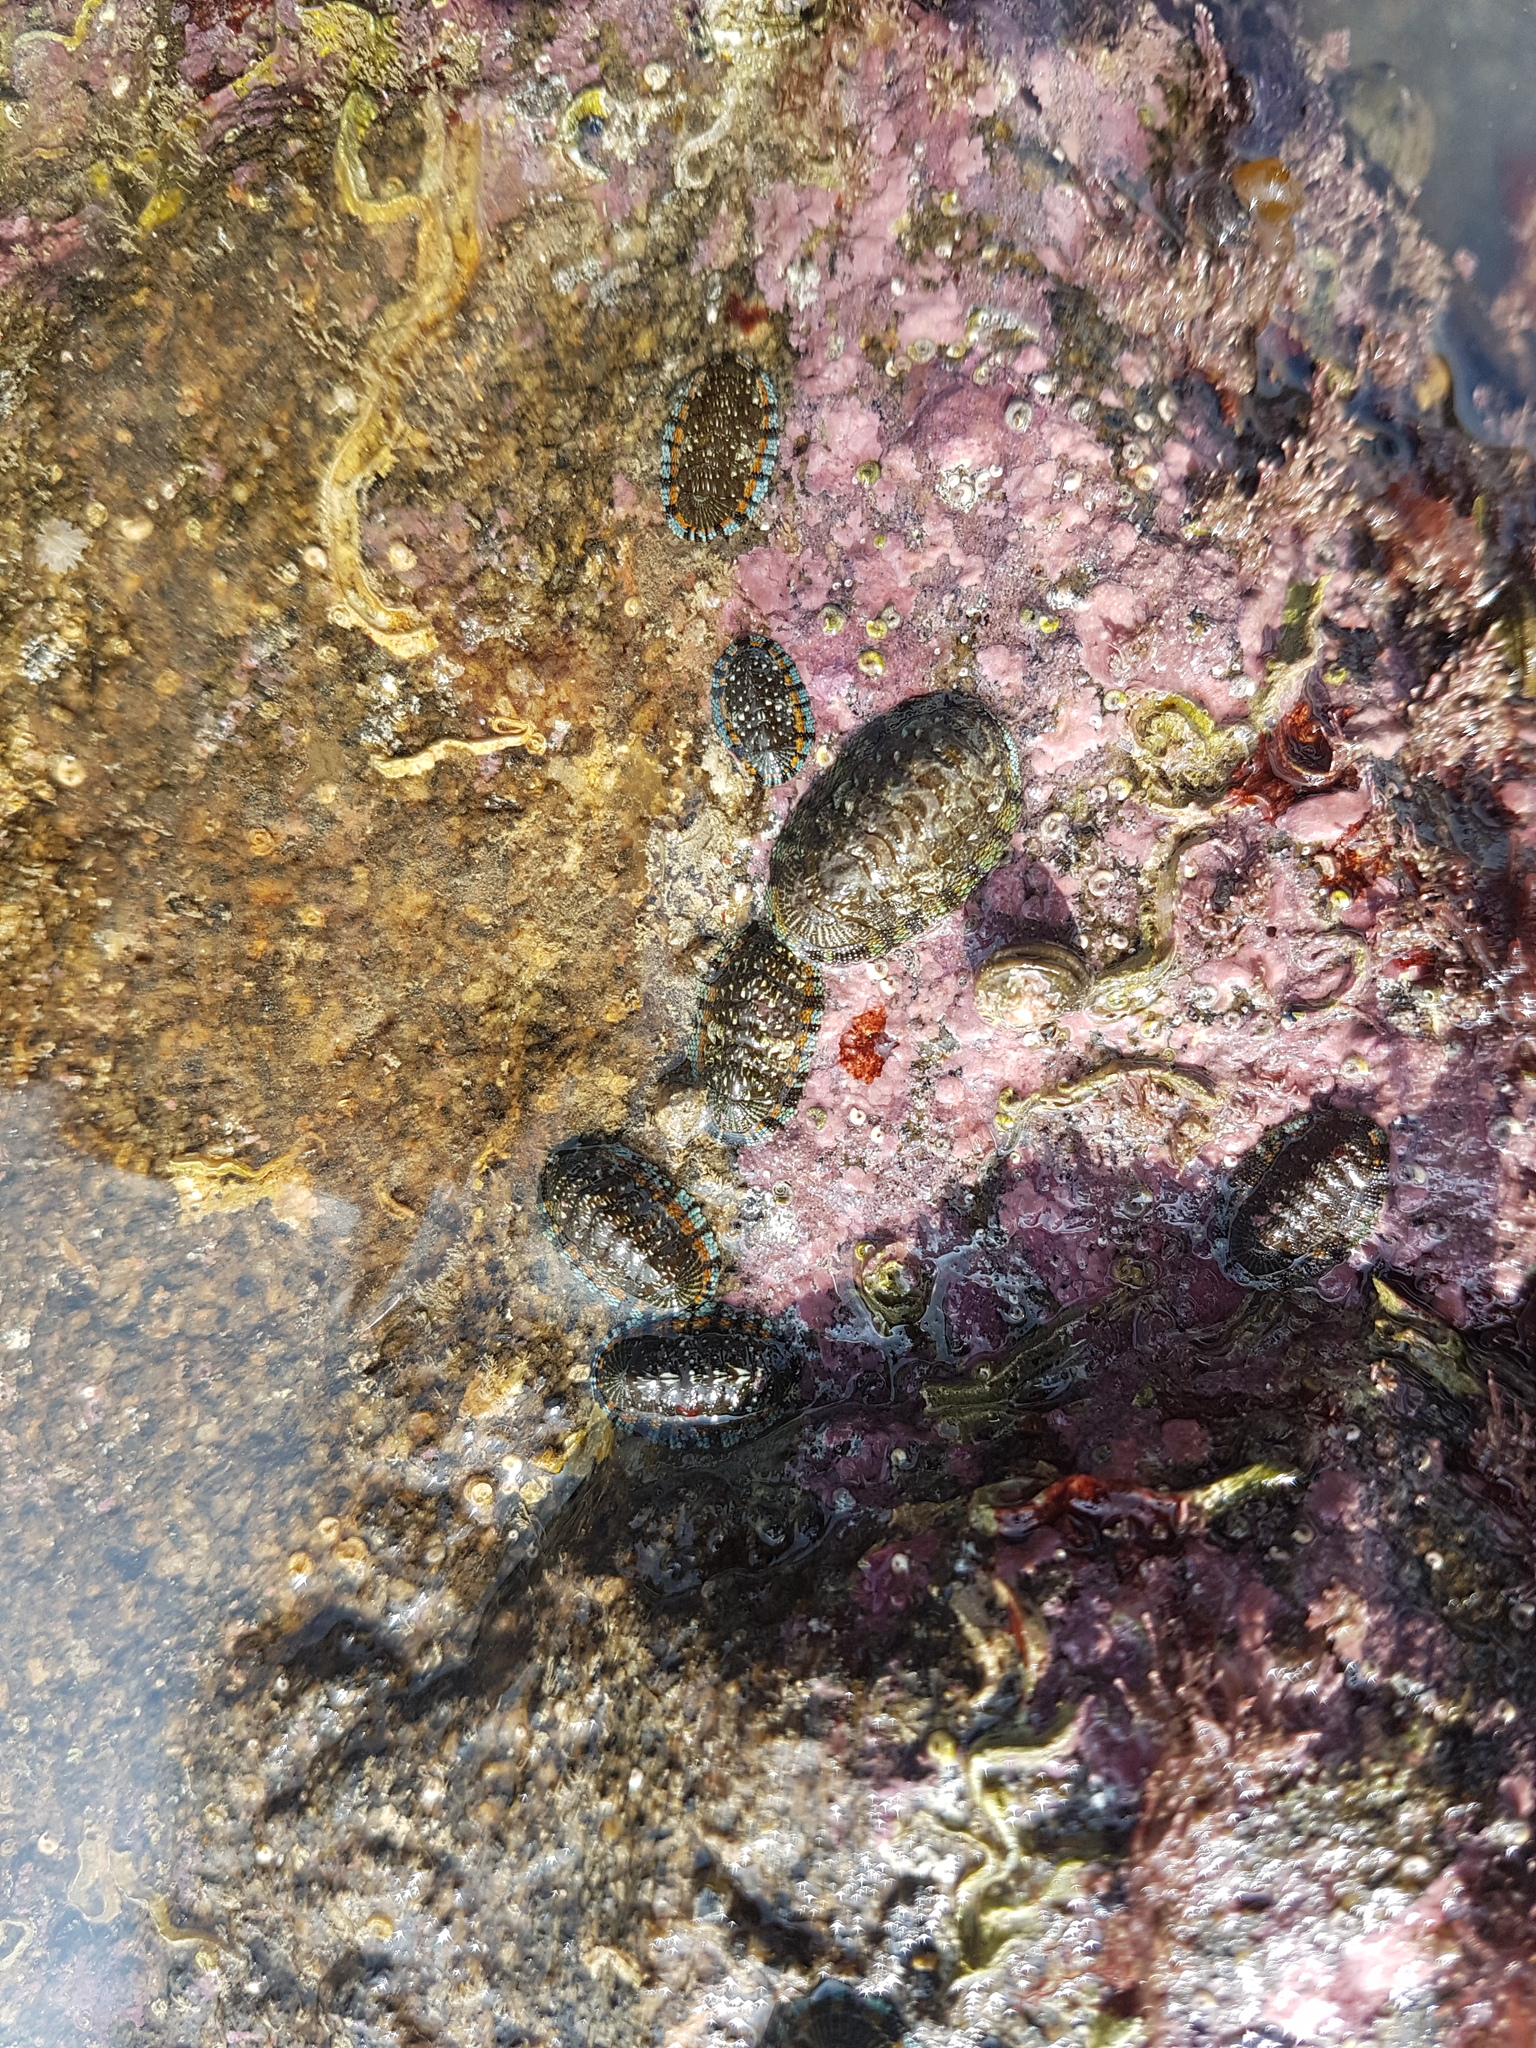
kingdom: Animalia
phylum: Mollusca
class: Polyplacophora
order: Chitonida
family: Chitonidae
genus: Sypharochiton
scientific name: Sypharochiton sinclairi
